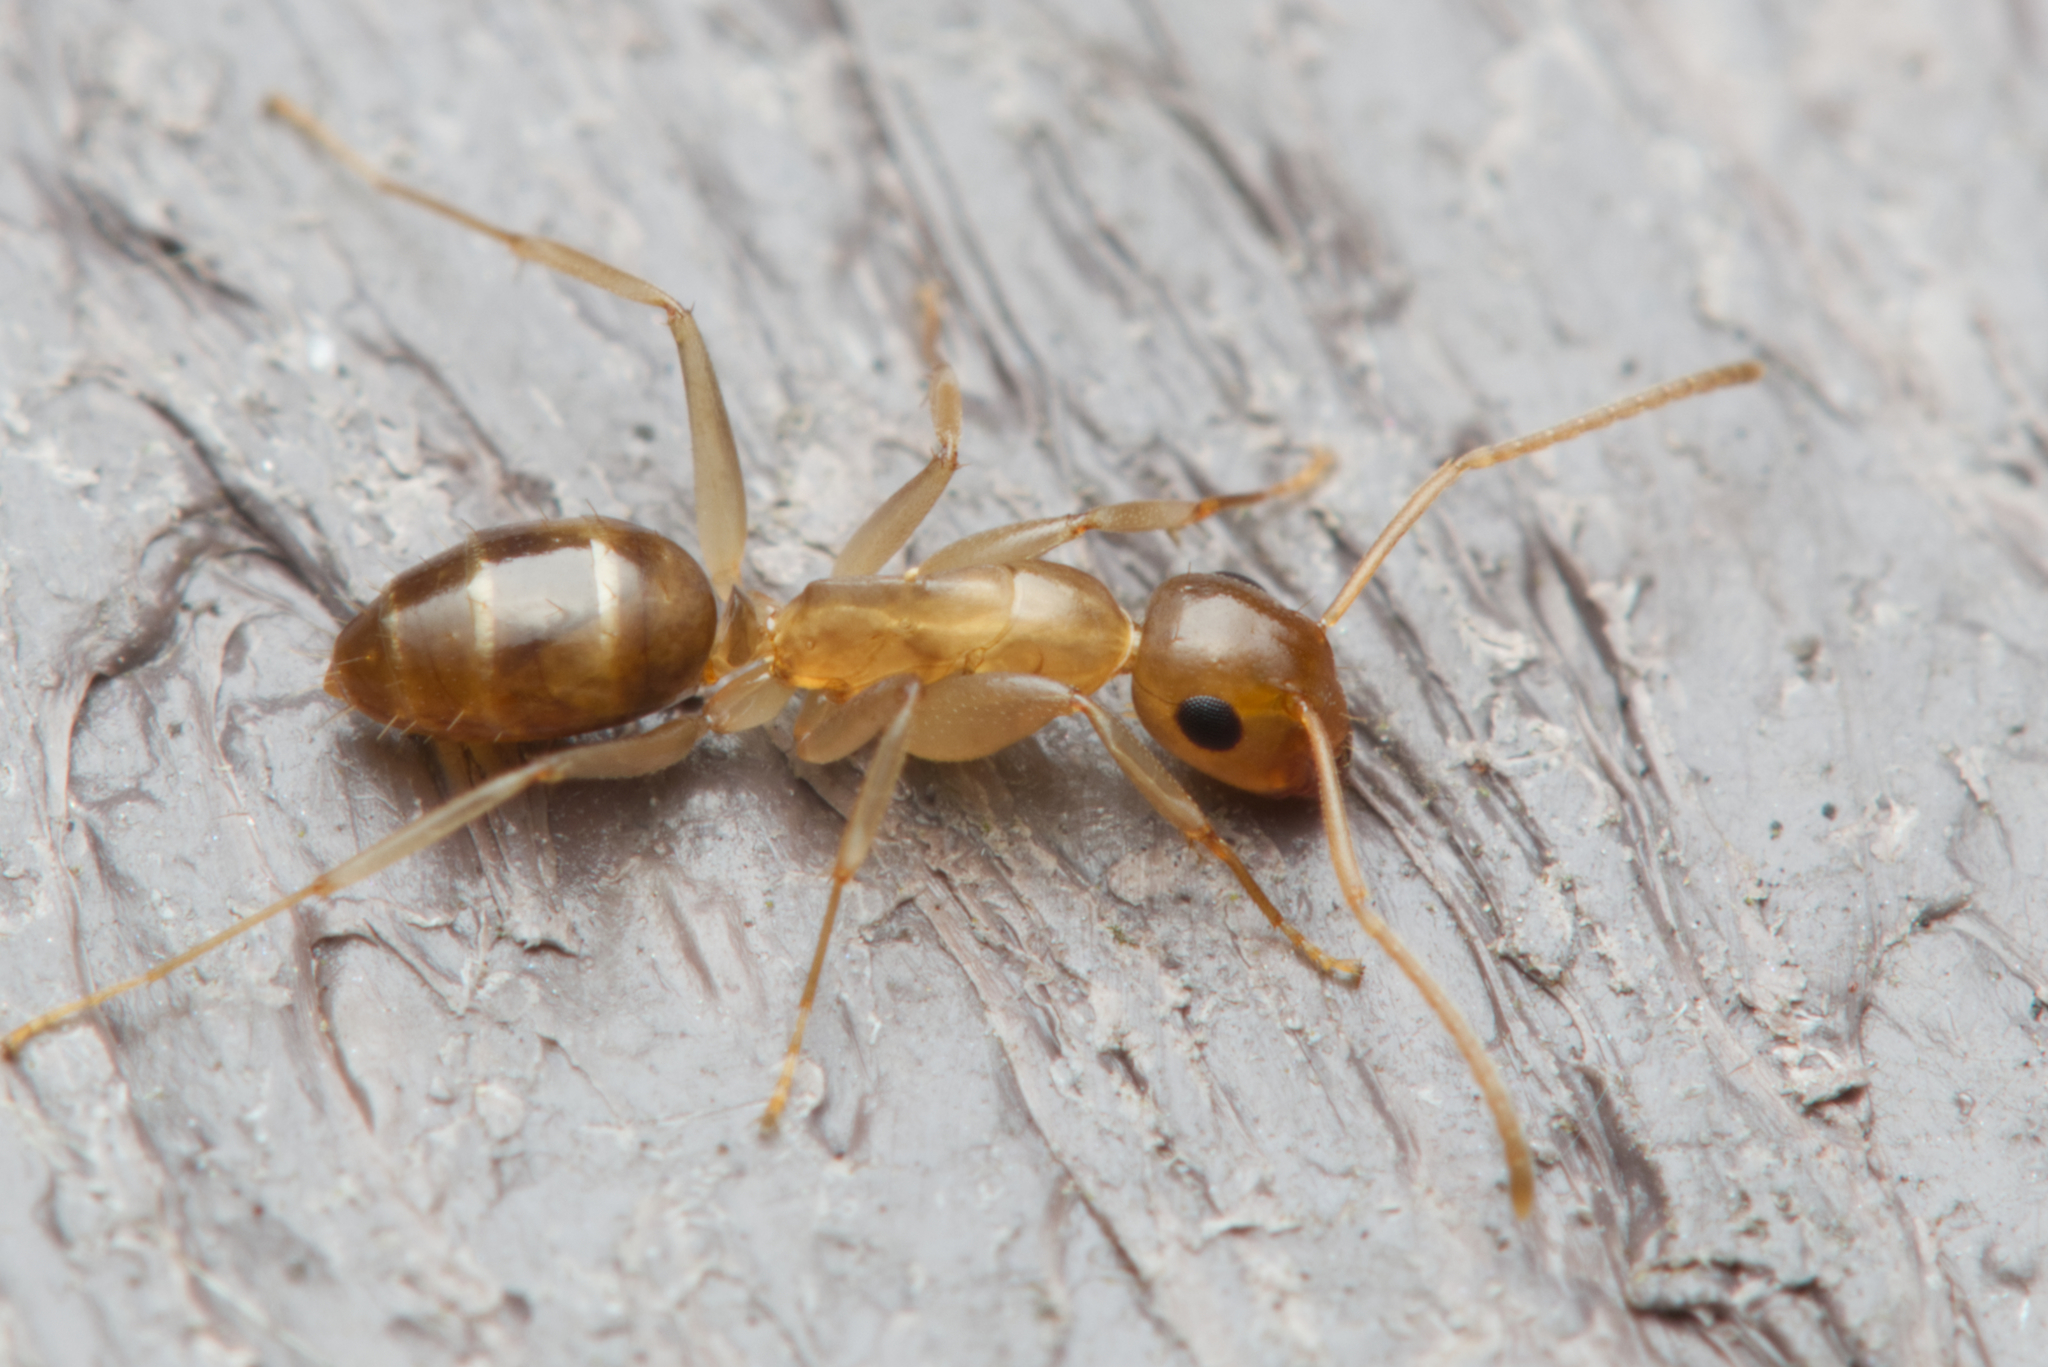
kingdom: Animalia
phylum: Arthropoda
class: Insecta
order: Hymenoptera
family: Formicidae
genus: Colobopsis
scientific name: Colobopsis
